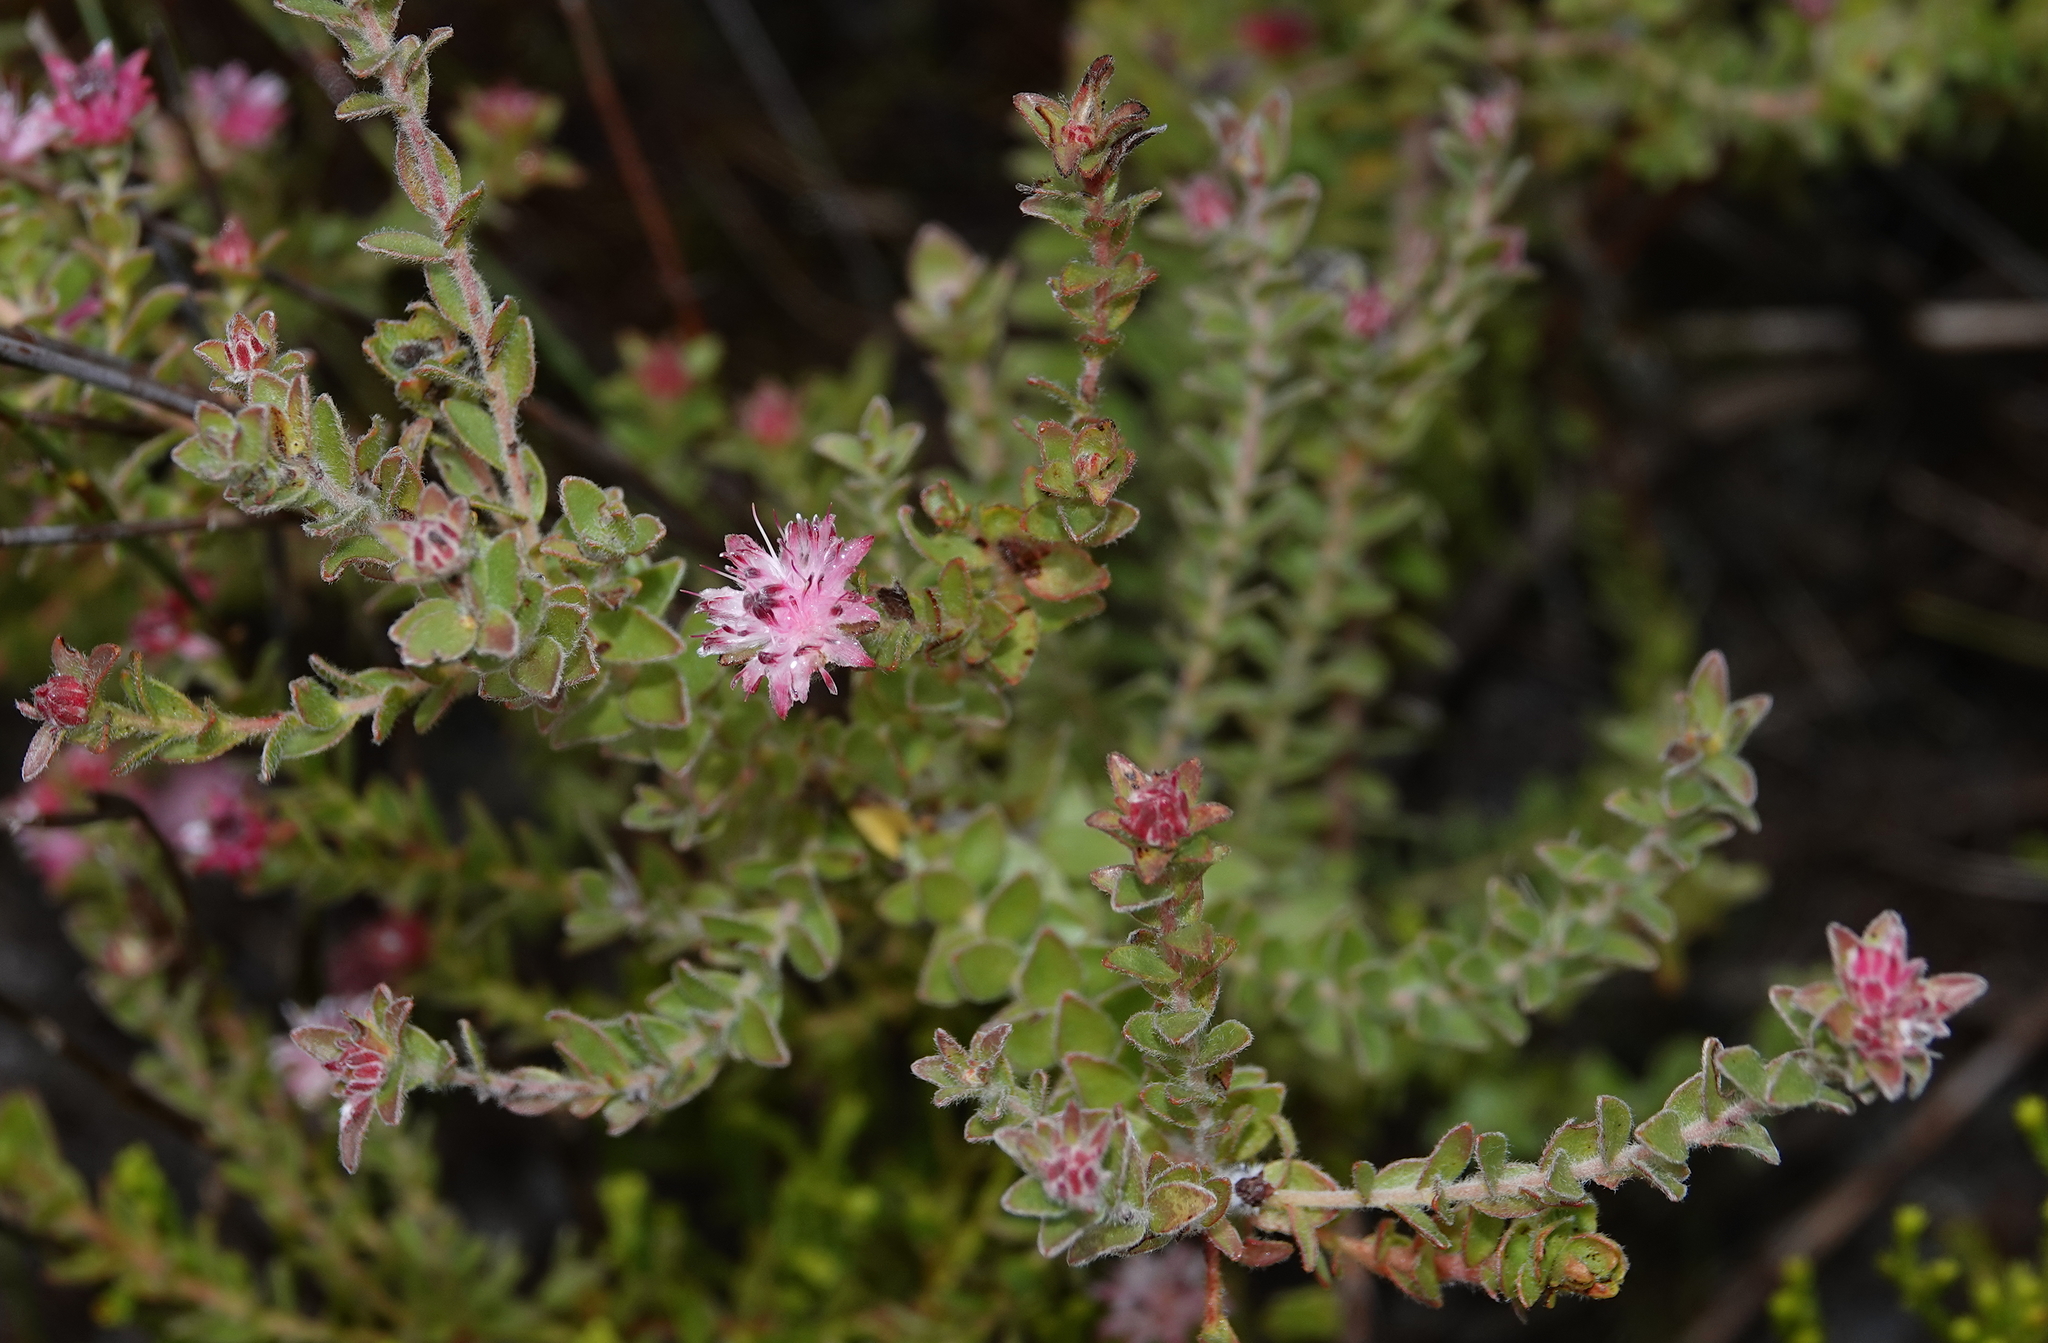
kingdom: Plantae
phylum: Tracheophyta
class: Magnoliopsida
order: Proteales
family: Proteaceae
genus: Diastella
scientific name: Diastella divaricata
